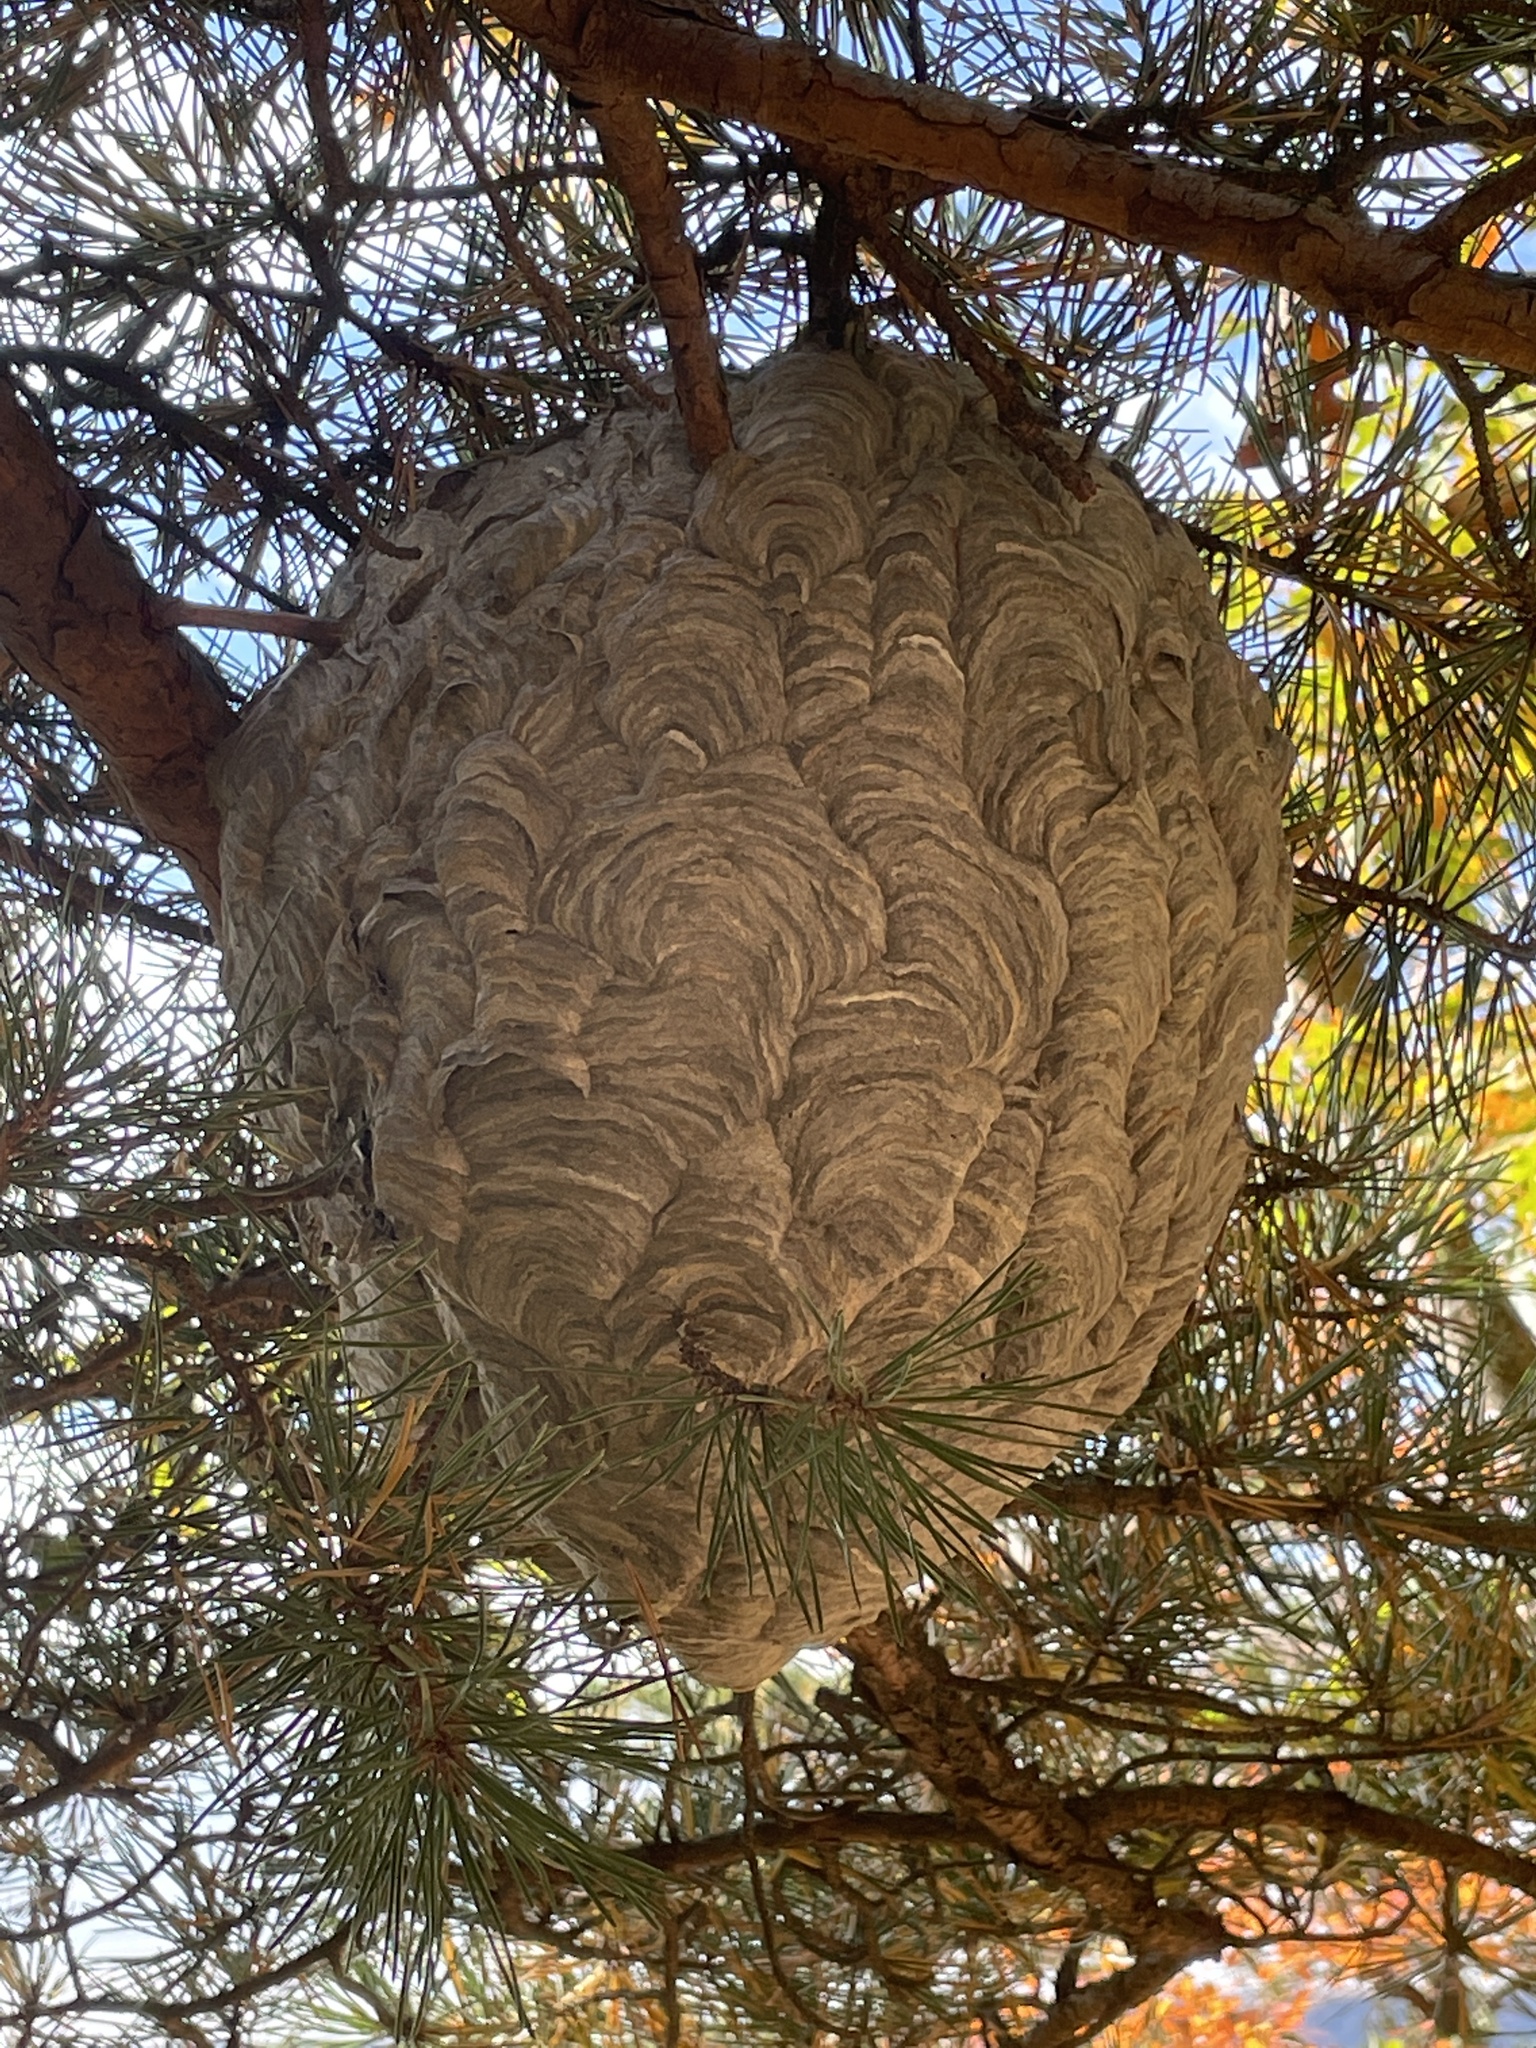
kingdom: Animalia
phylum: Arthropoda
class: Insecta
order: Hymenoptera
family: Vespidae
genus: Dolichovespula
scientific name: Dolichovespula maculata
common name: Bald-faced hornet
